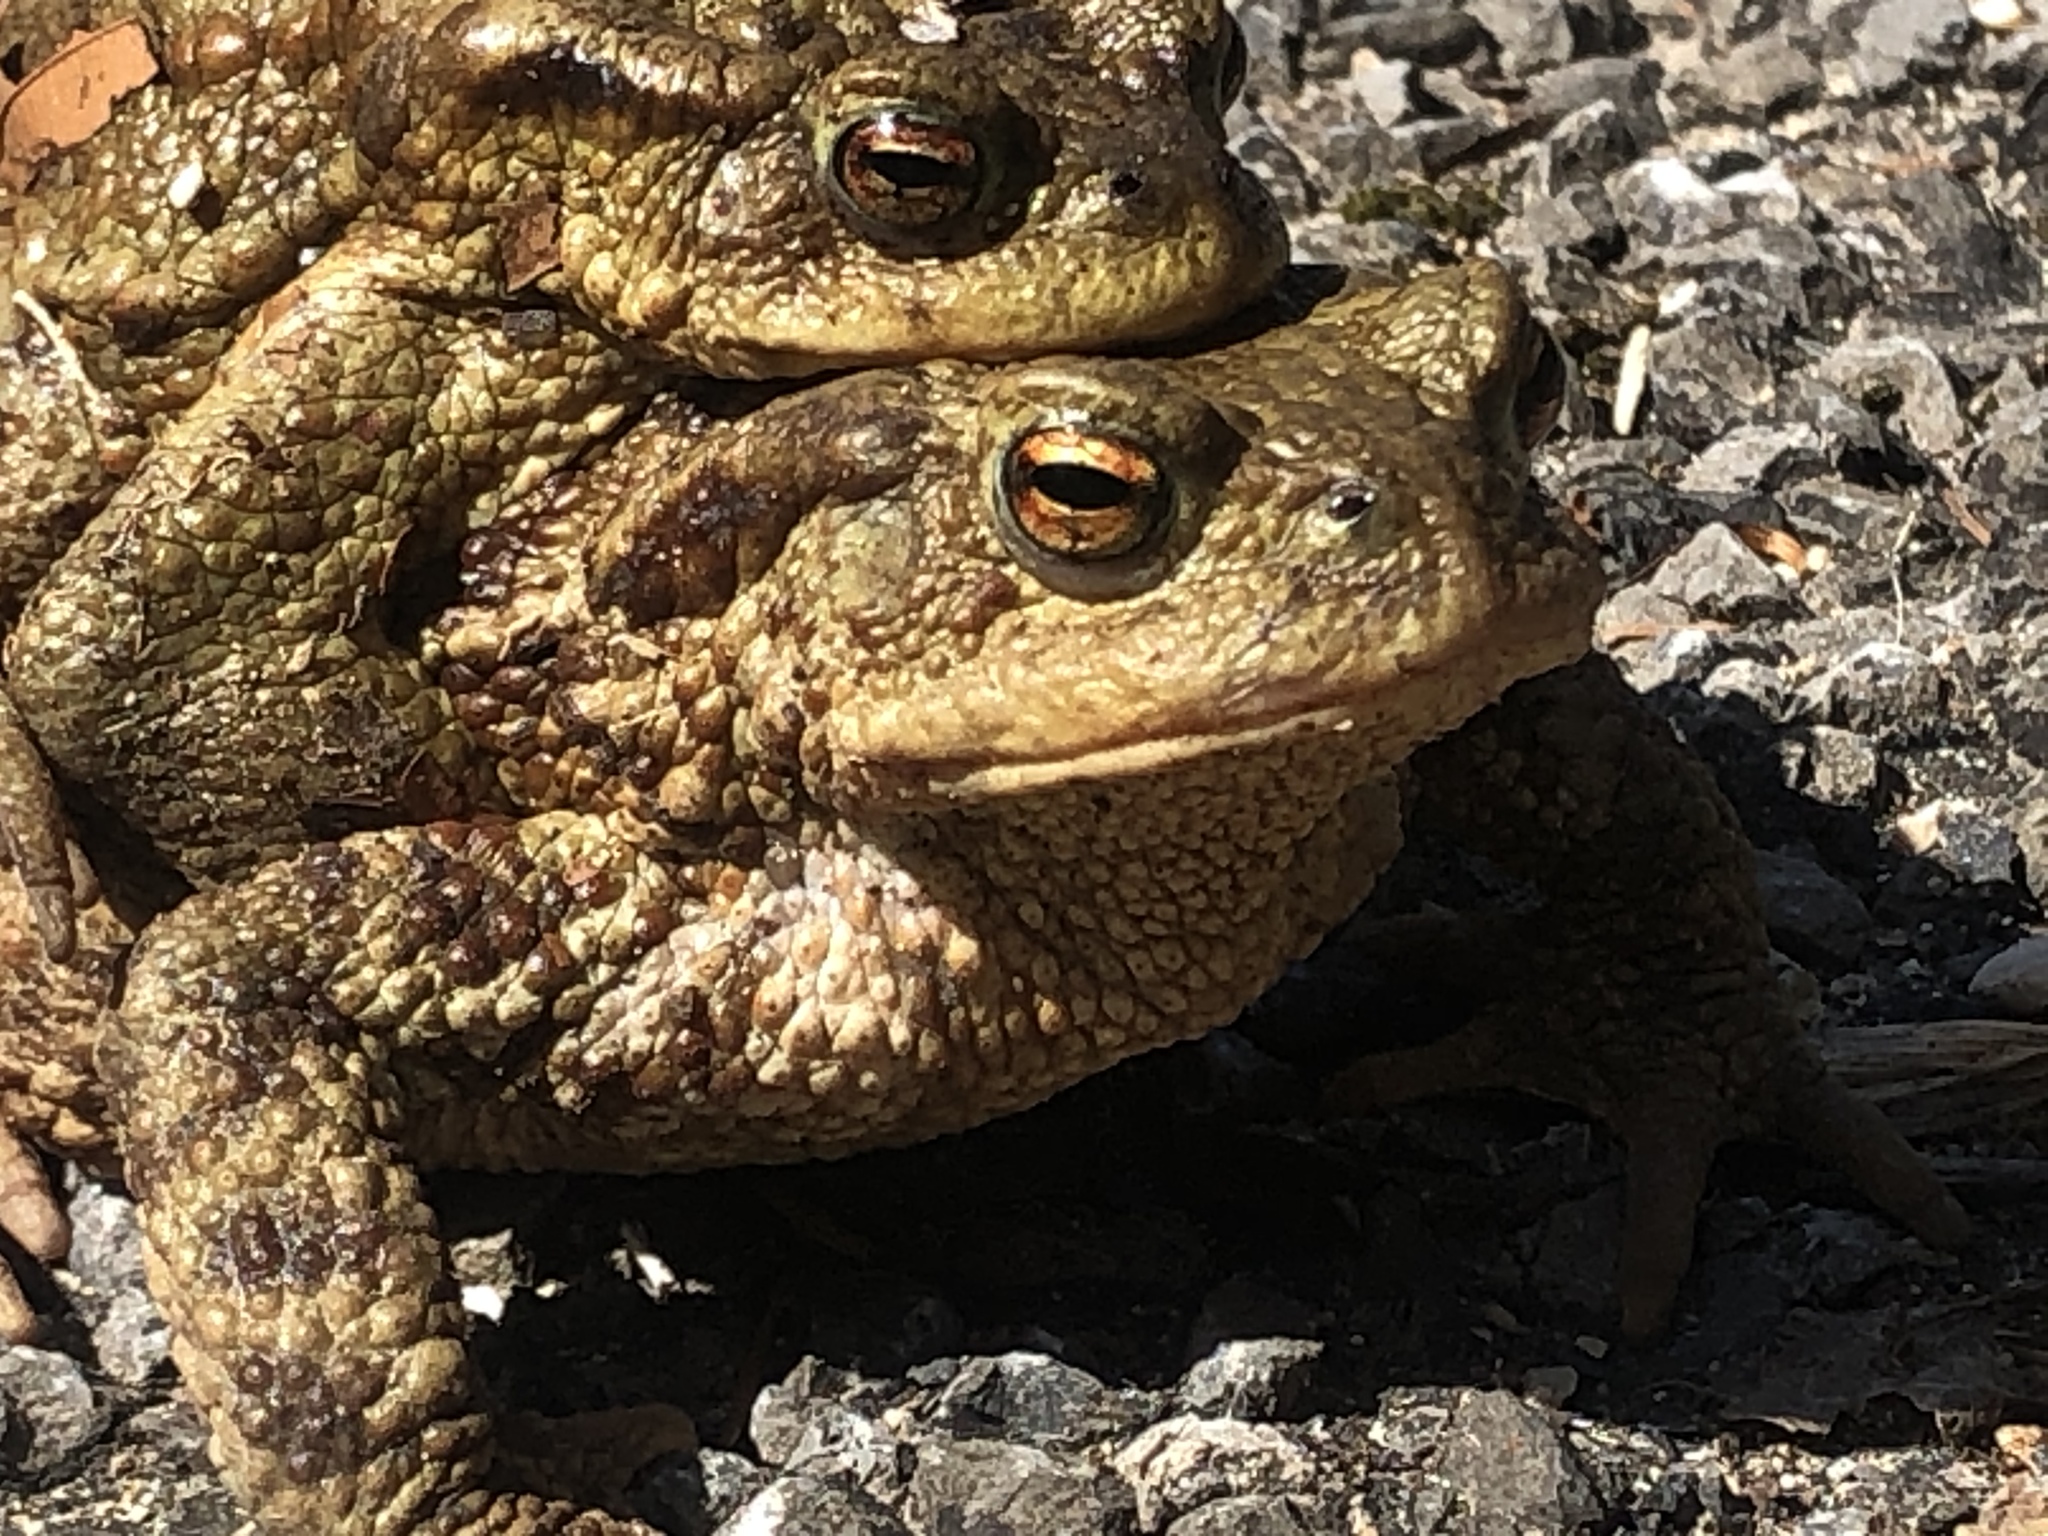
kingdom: Animalia
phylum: Chordata
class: Amphibia
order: Anura
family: Bufonidae
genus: Bufo
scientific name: Bufo bufo
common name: Common toad
